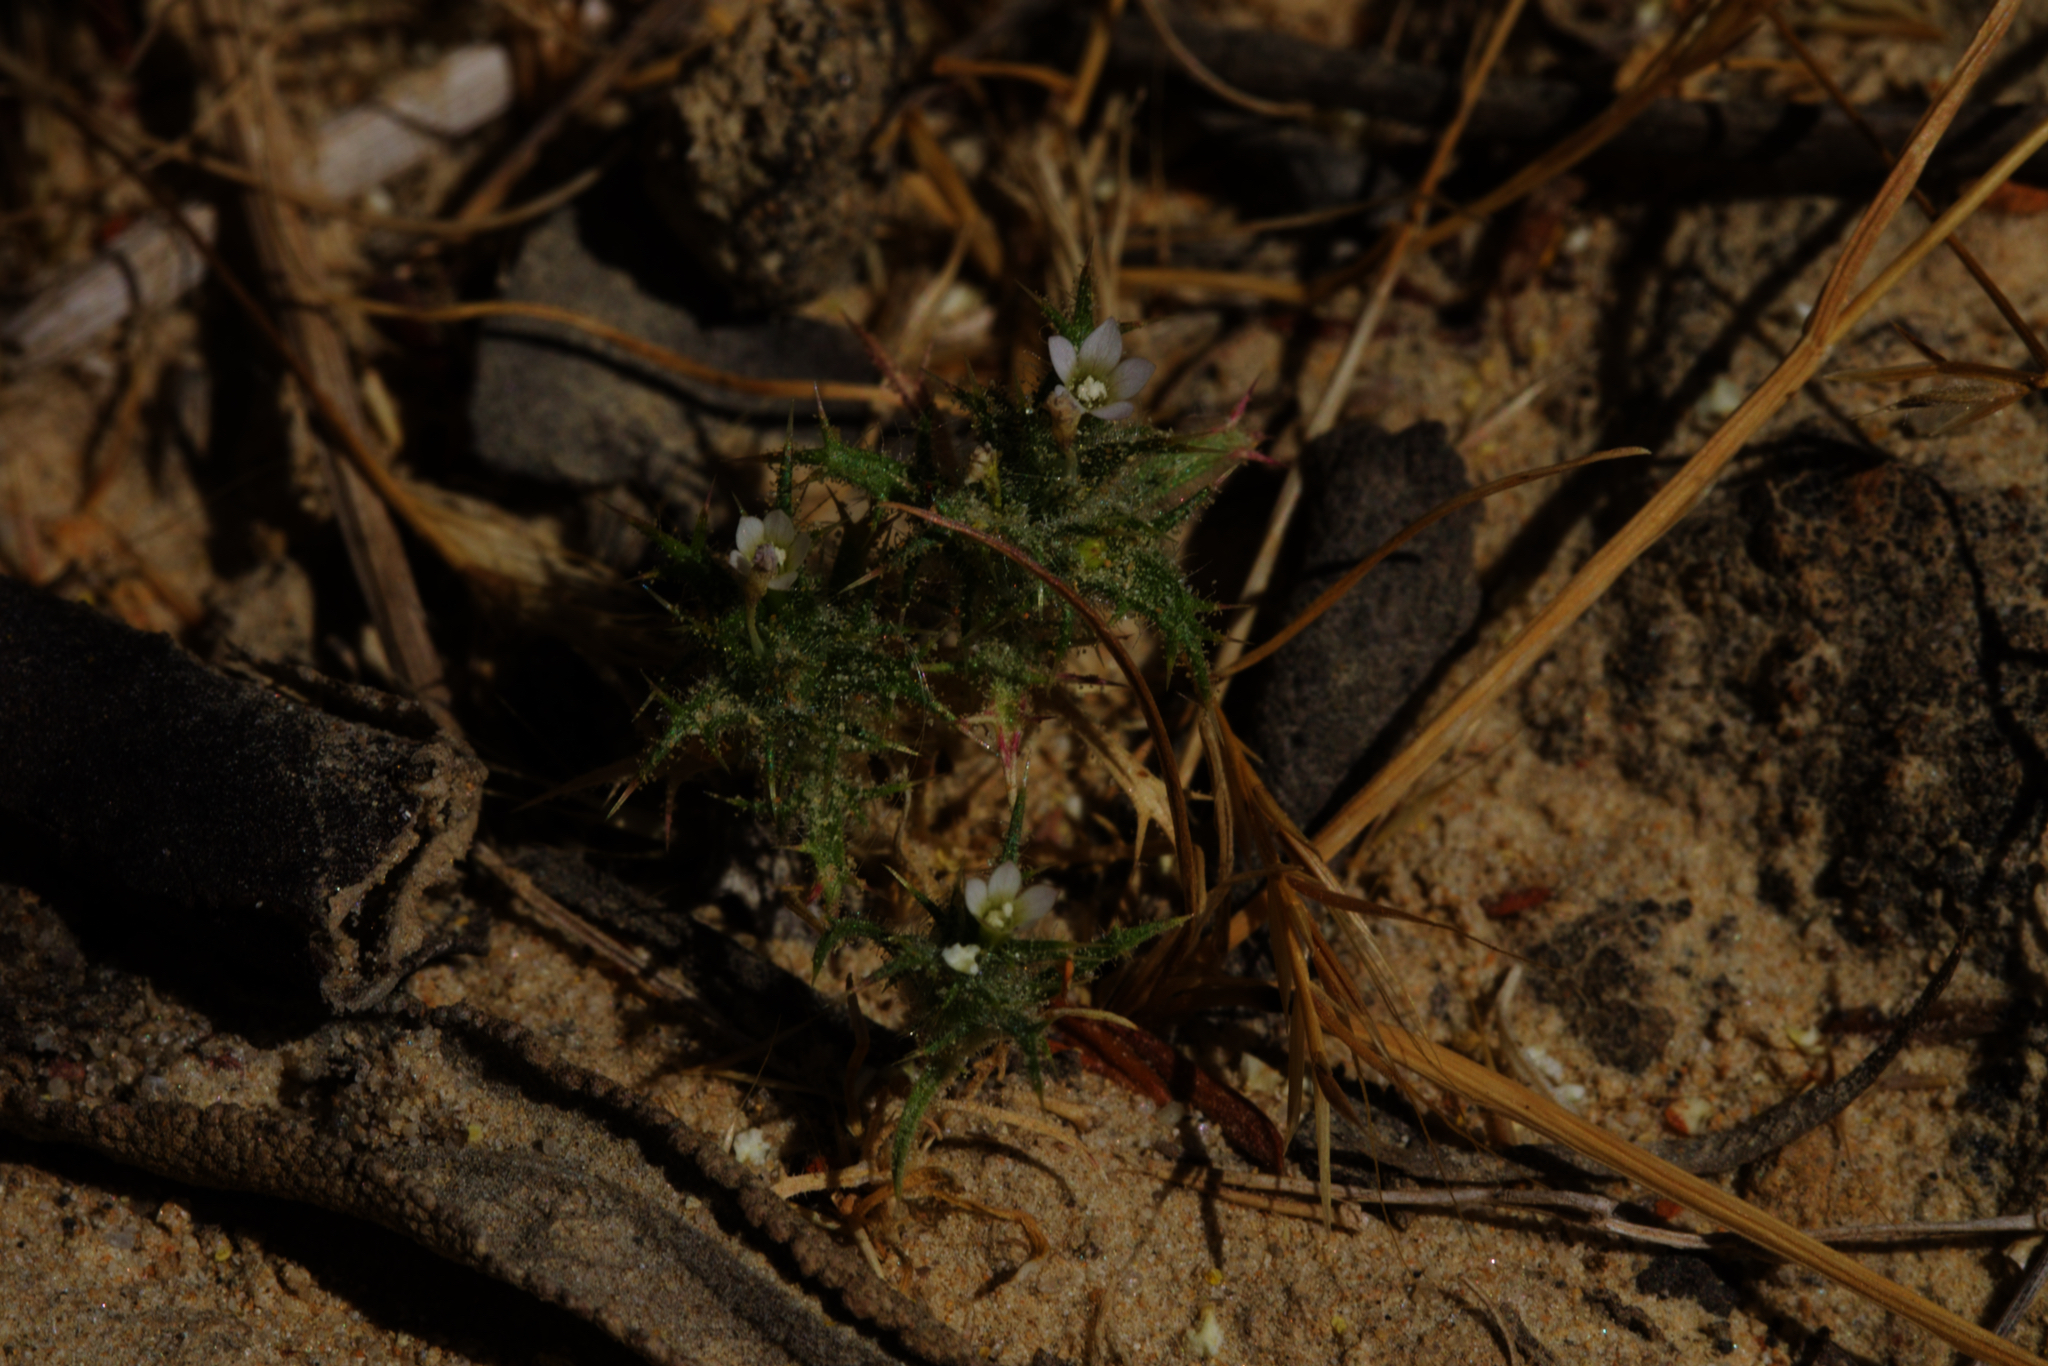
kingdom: Plantae
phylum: Tracheophyta
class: Magnoliopsida
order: Ericales
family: Polemoniaceae
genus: Navarretia
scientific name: Navarretia atractyloides
